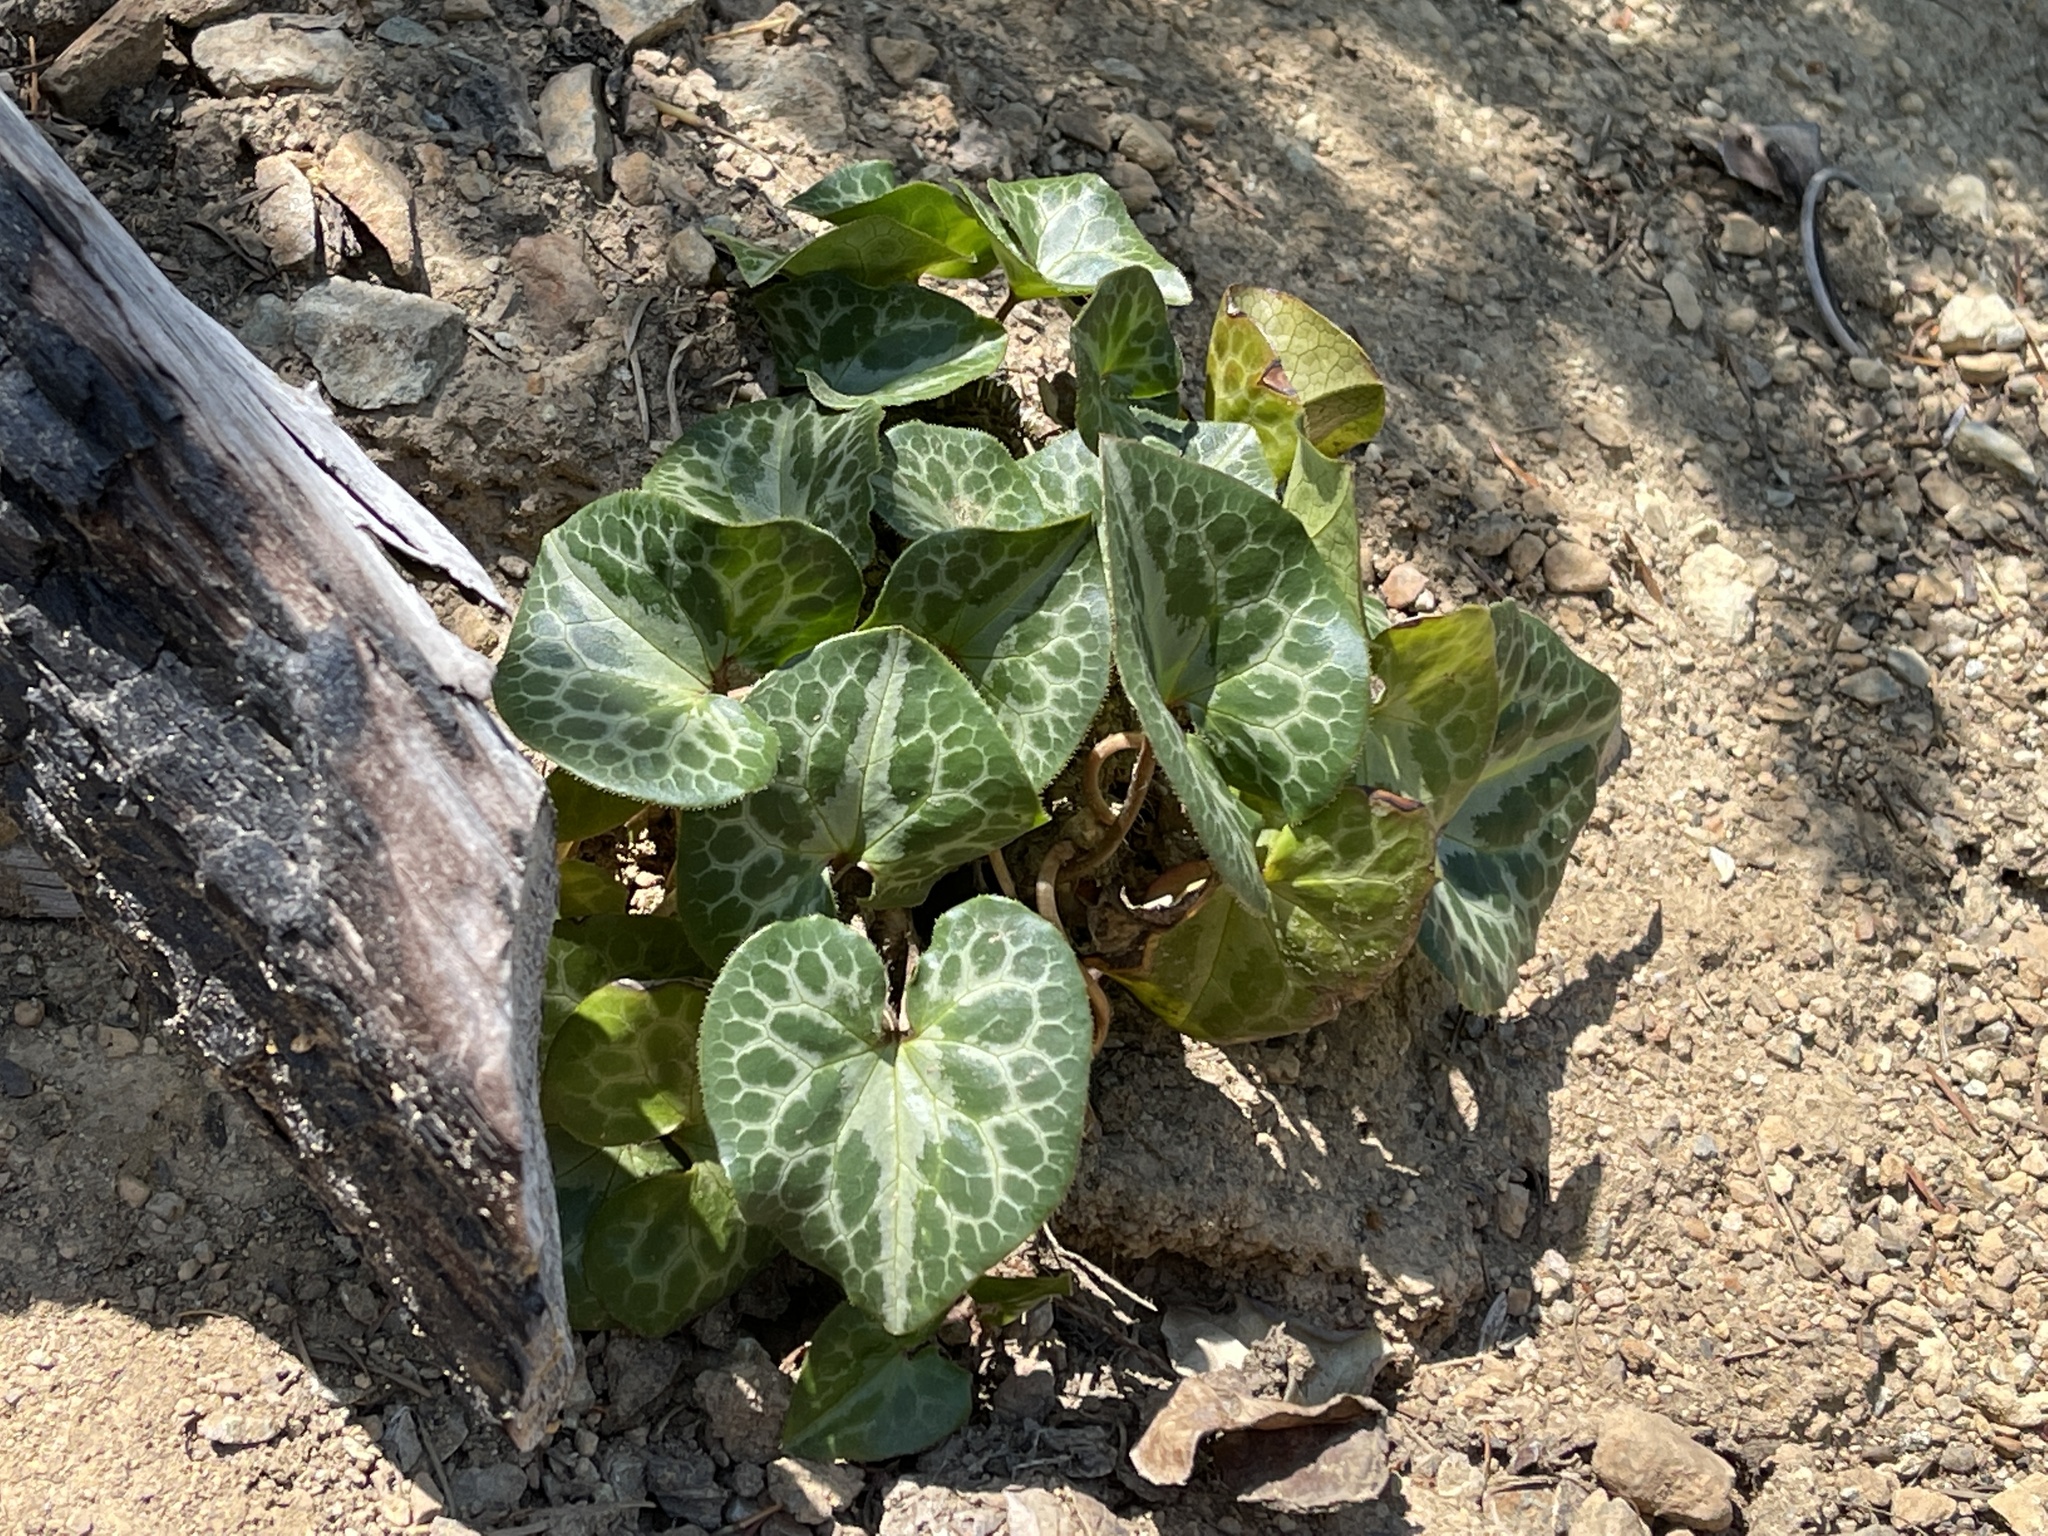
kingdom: Plantae
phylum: Tracheophyta
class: Magnoliopsida
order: Piperales
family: Aristolochiaceae
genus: Asarum
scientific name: Asarum marmoratum
